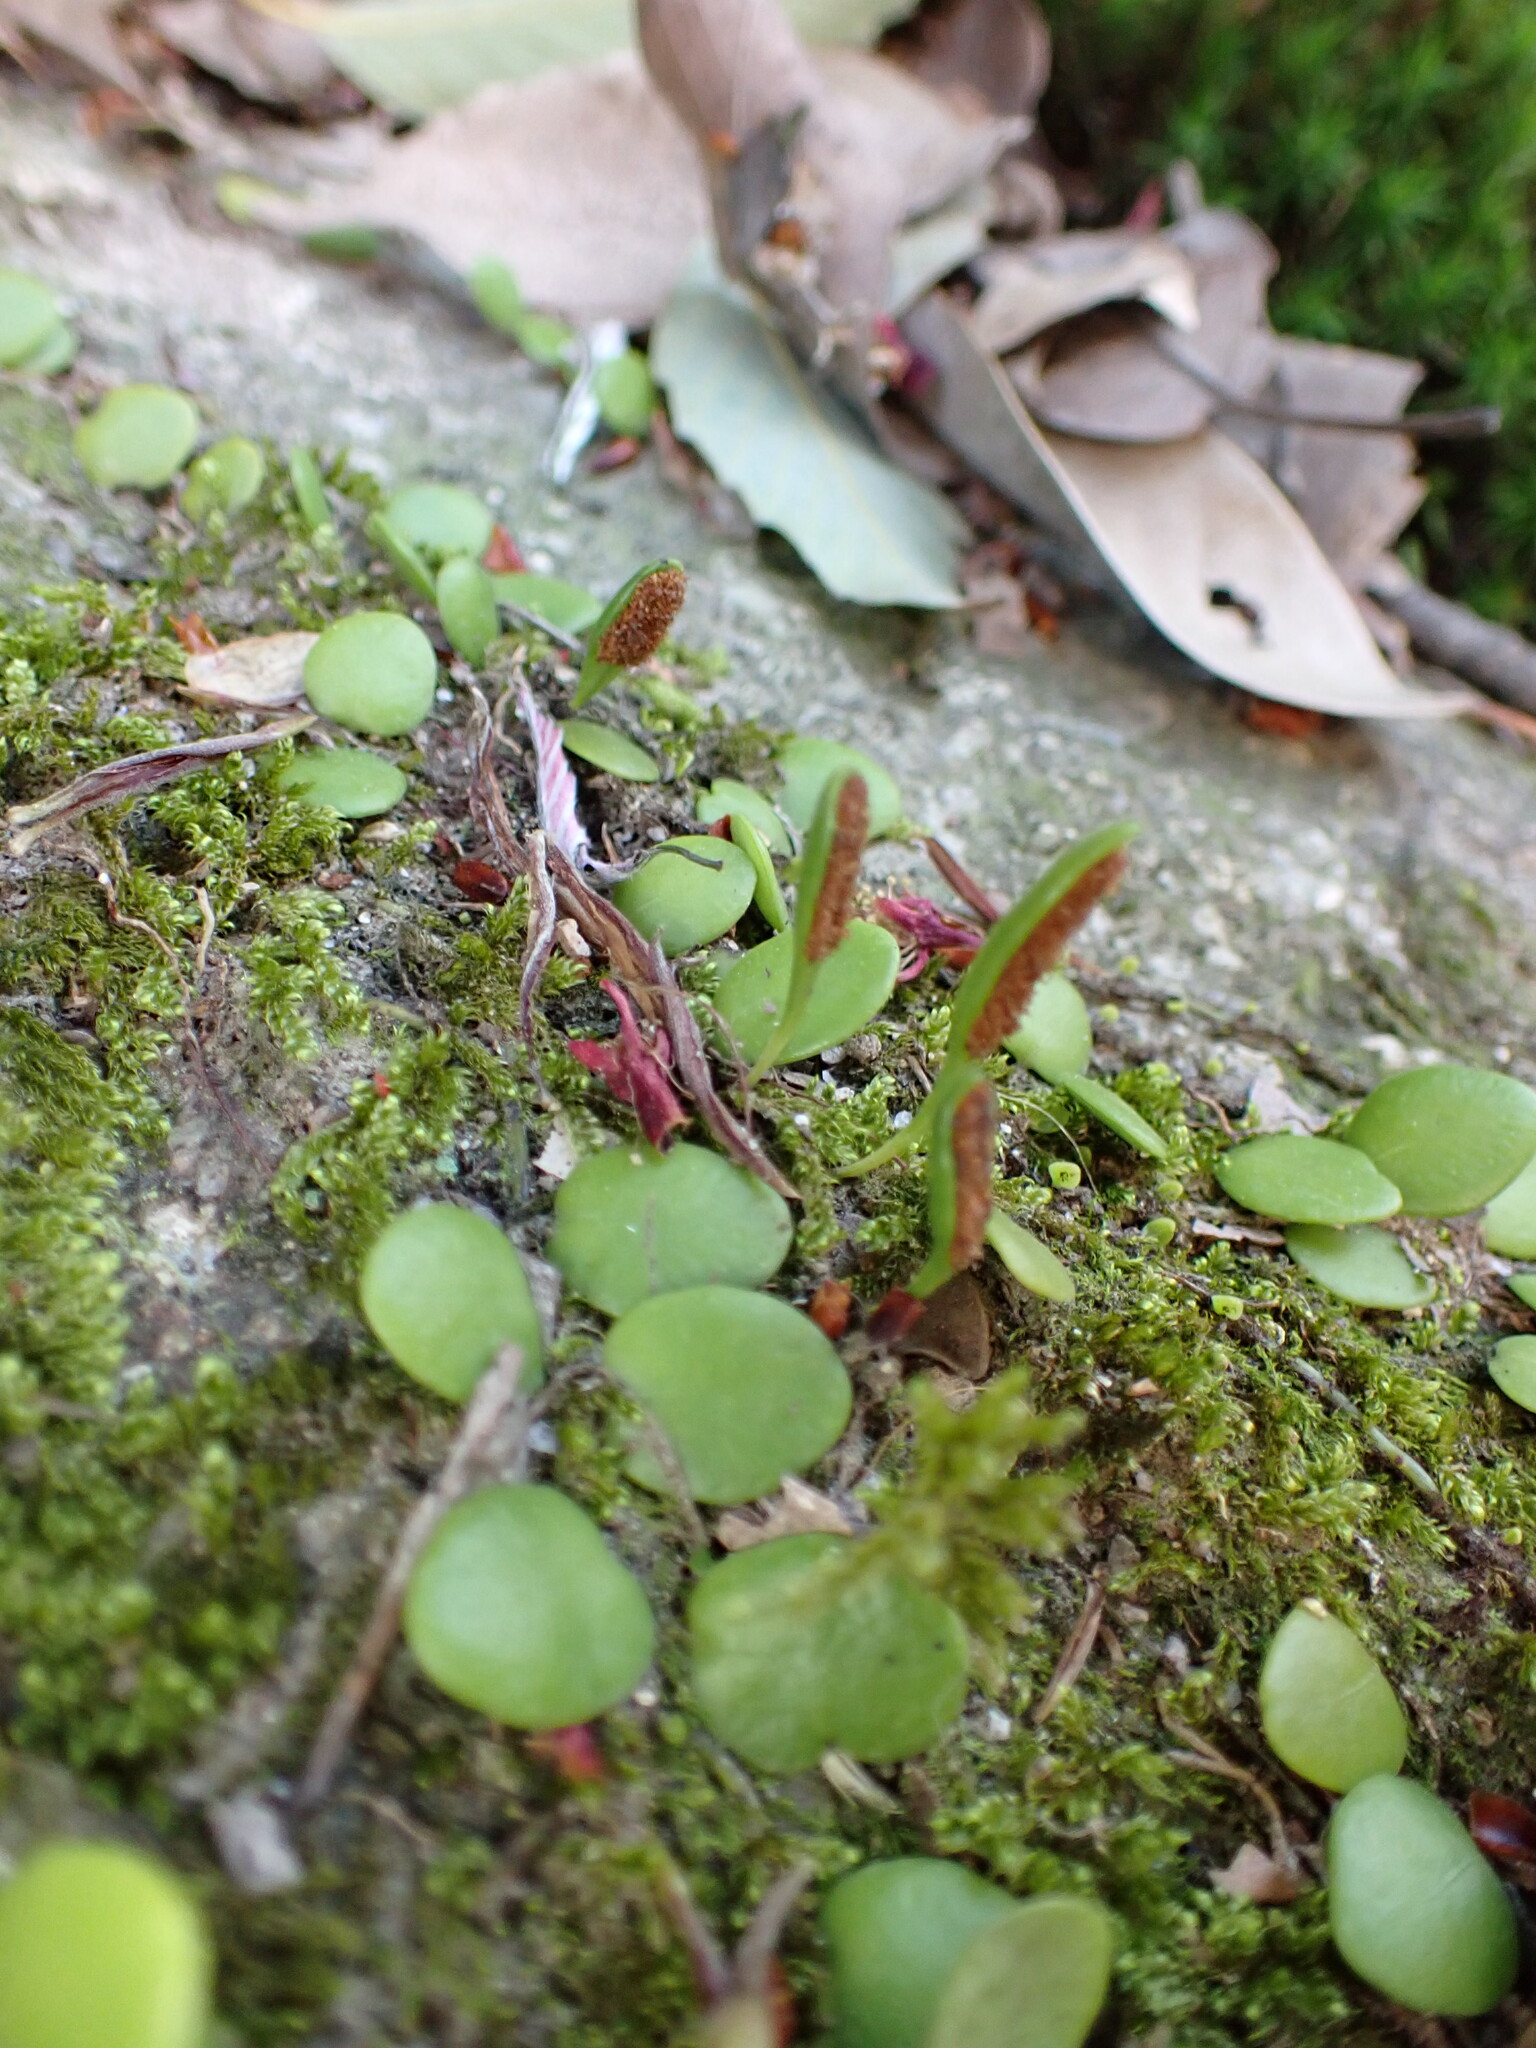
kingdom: Plantae
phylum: Tracheophyta
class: Polypodiopsida
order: Polypodiales
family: Polypodiaceae
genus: Lepisorus
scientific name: Lepisorus microphyllus
